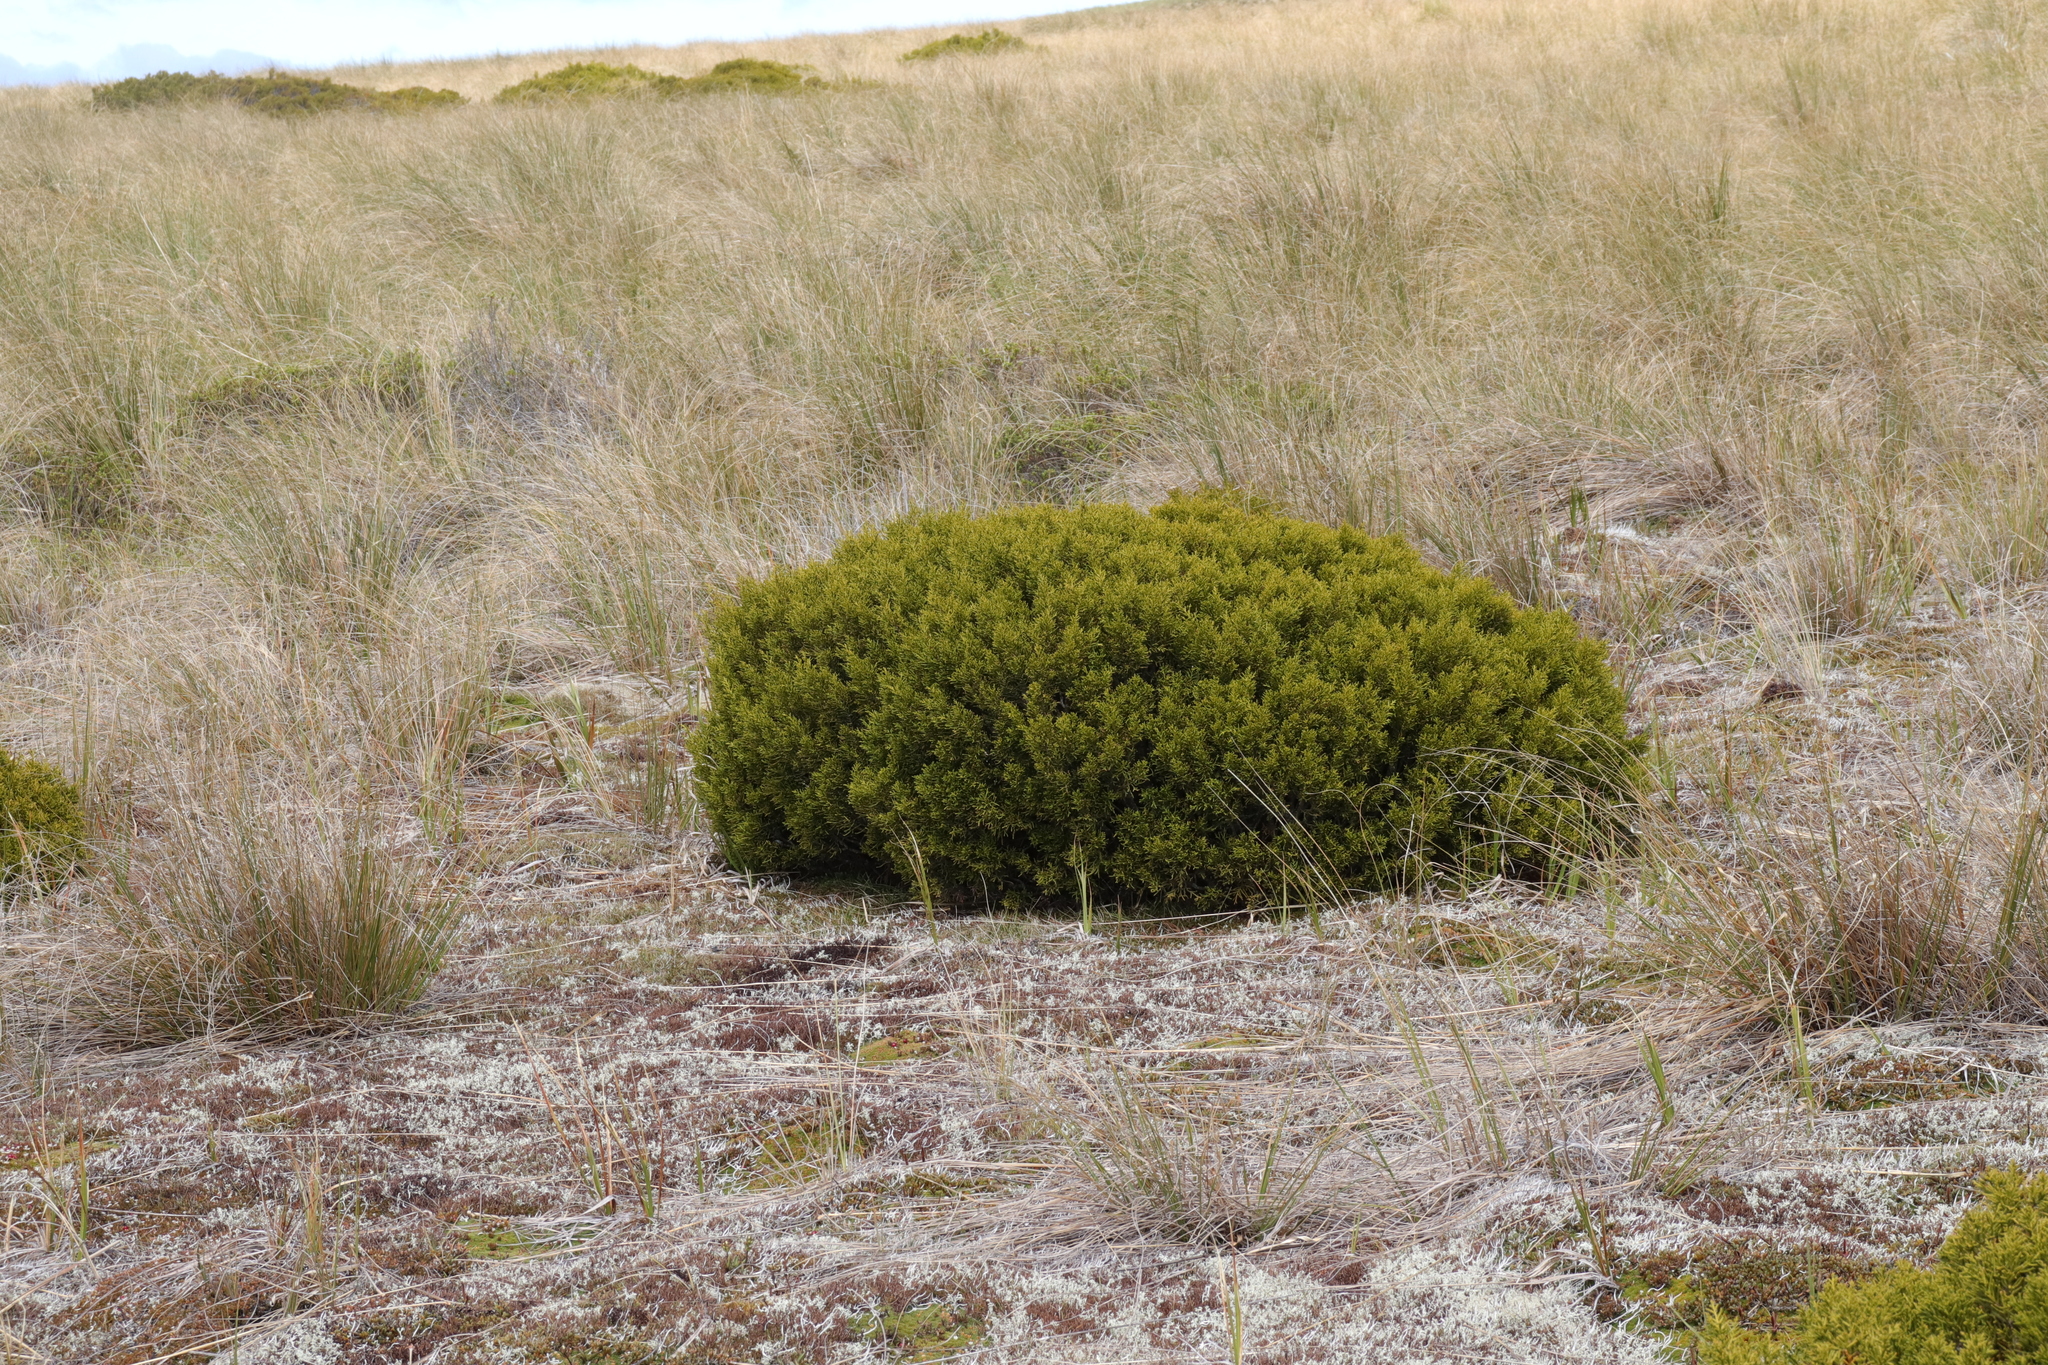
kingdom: Plantae
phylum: Tracheophyta
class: Pinopsida
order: Pinales
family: Podocarpaceae
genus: Halocarpus
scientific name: Halocarpus bidwillii
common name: Bog pine
